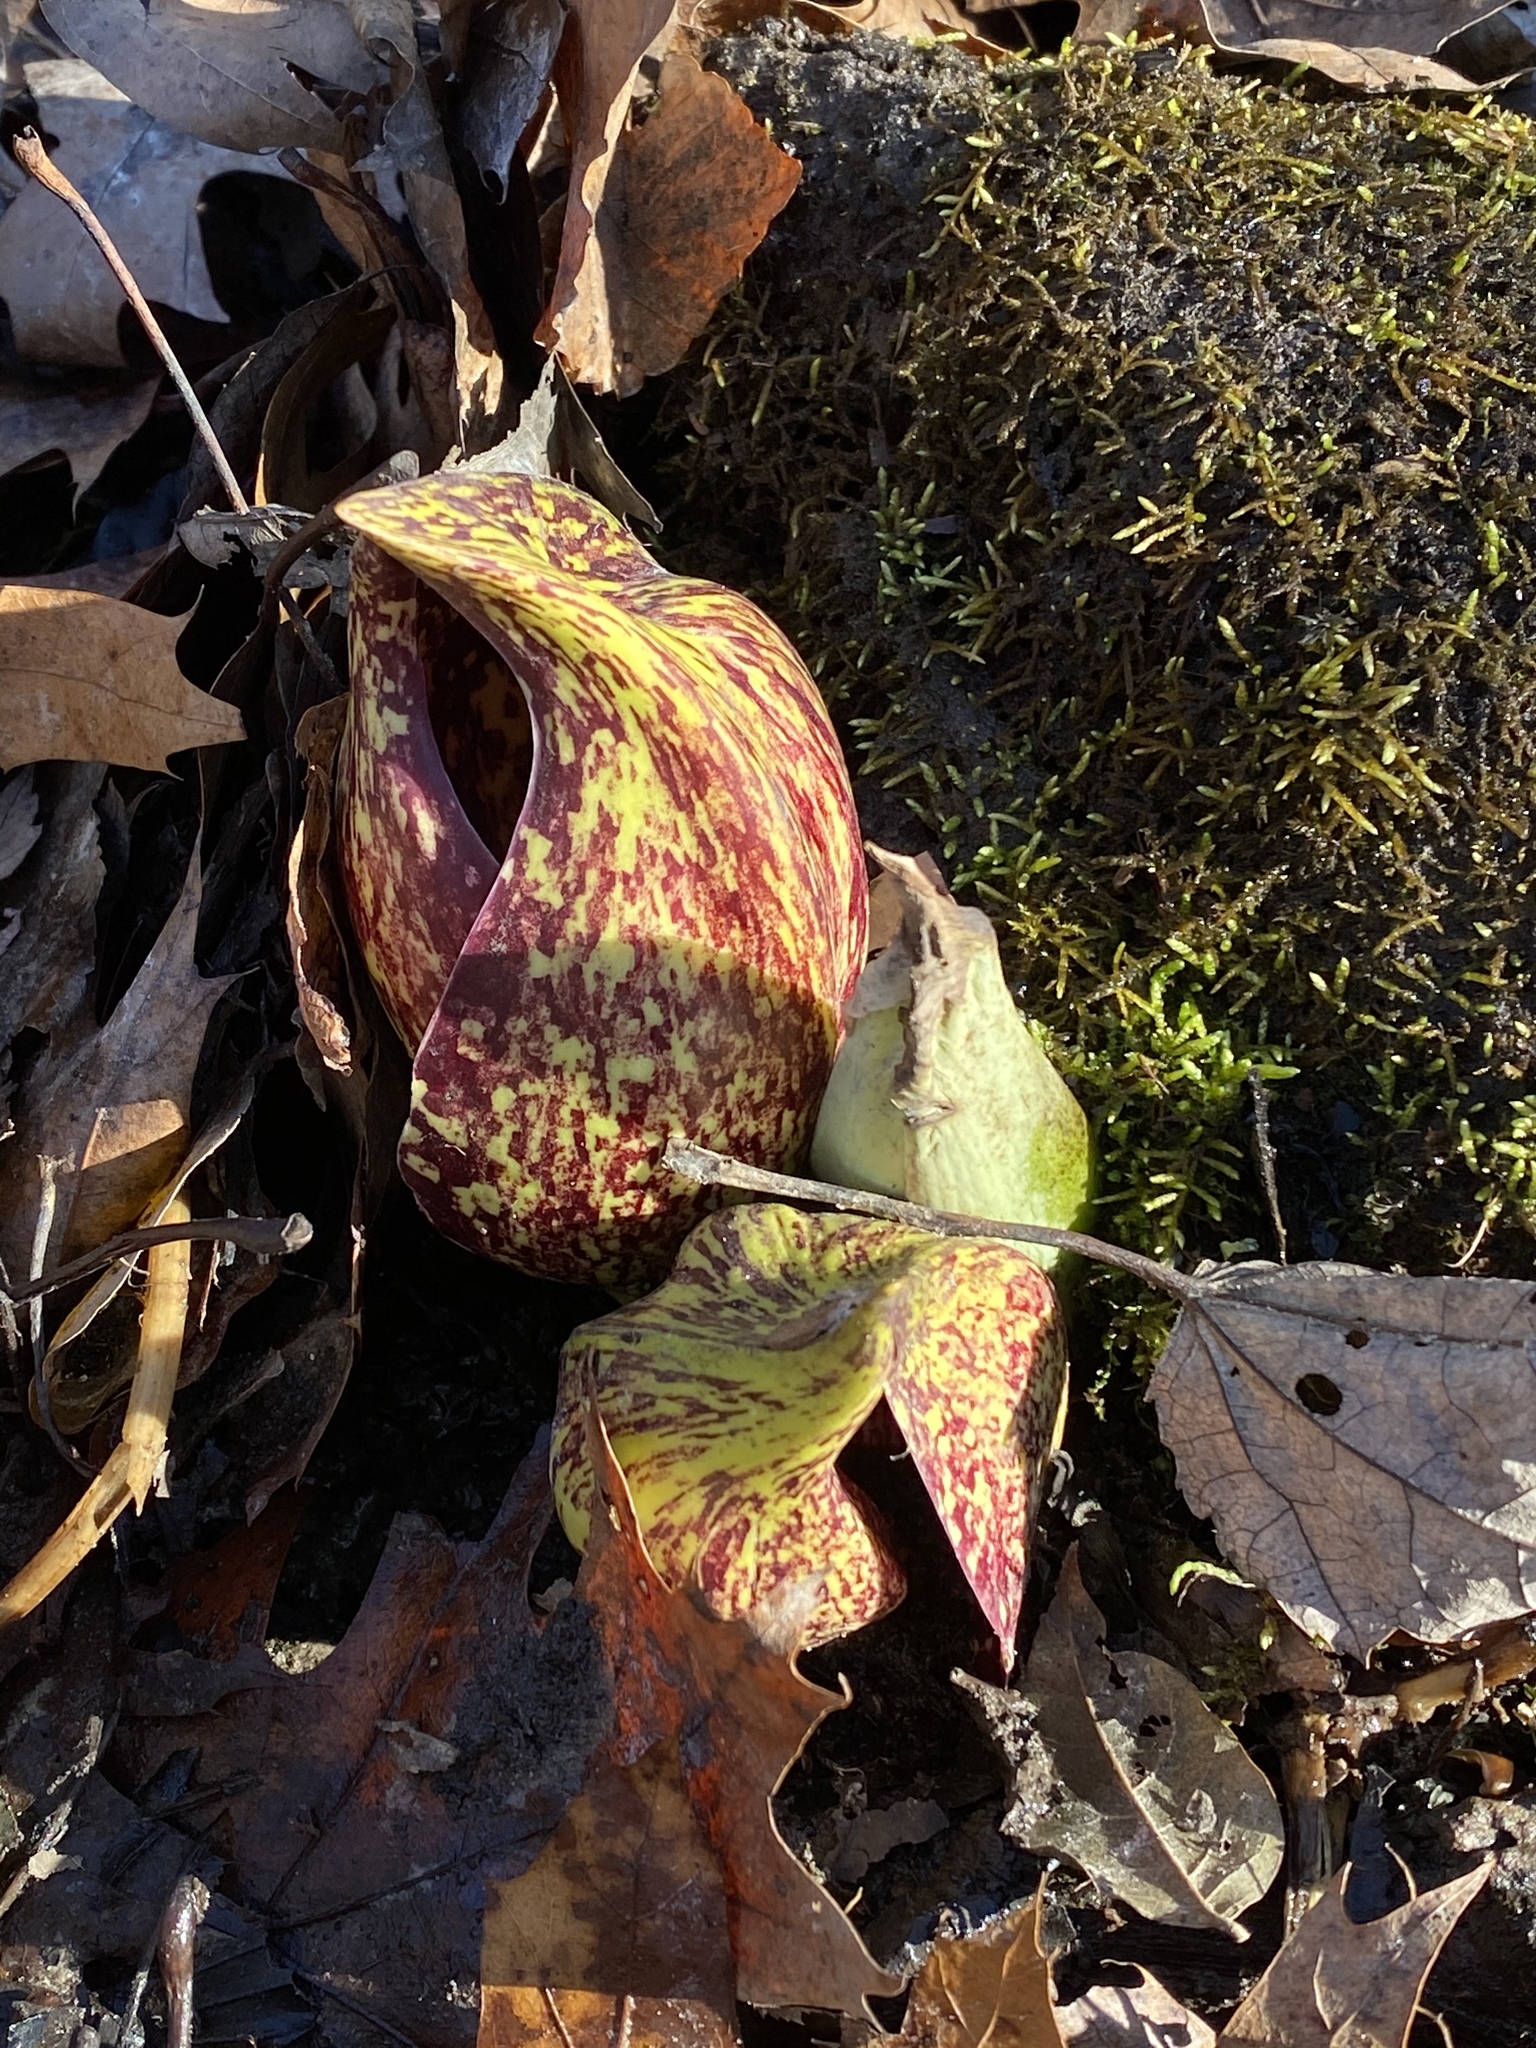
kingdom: Plantae
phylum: Tracheophyta
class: Liliopsida
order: Alismatales
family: Araceae
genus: Symplocarpus
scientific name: Symplocarpus foetidus
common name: Eastern skunk cabbage
